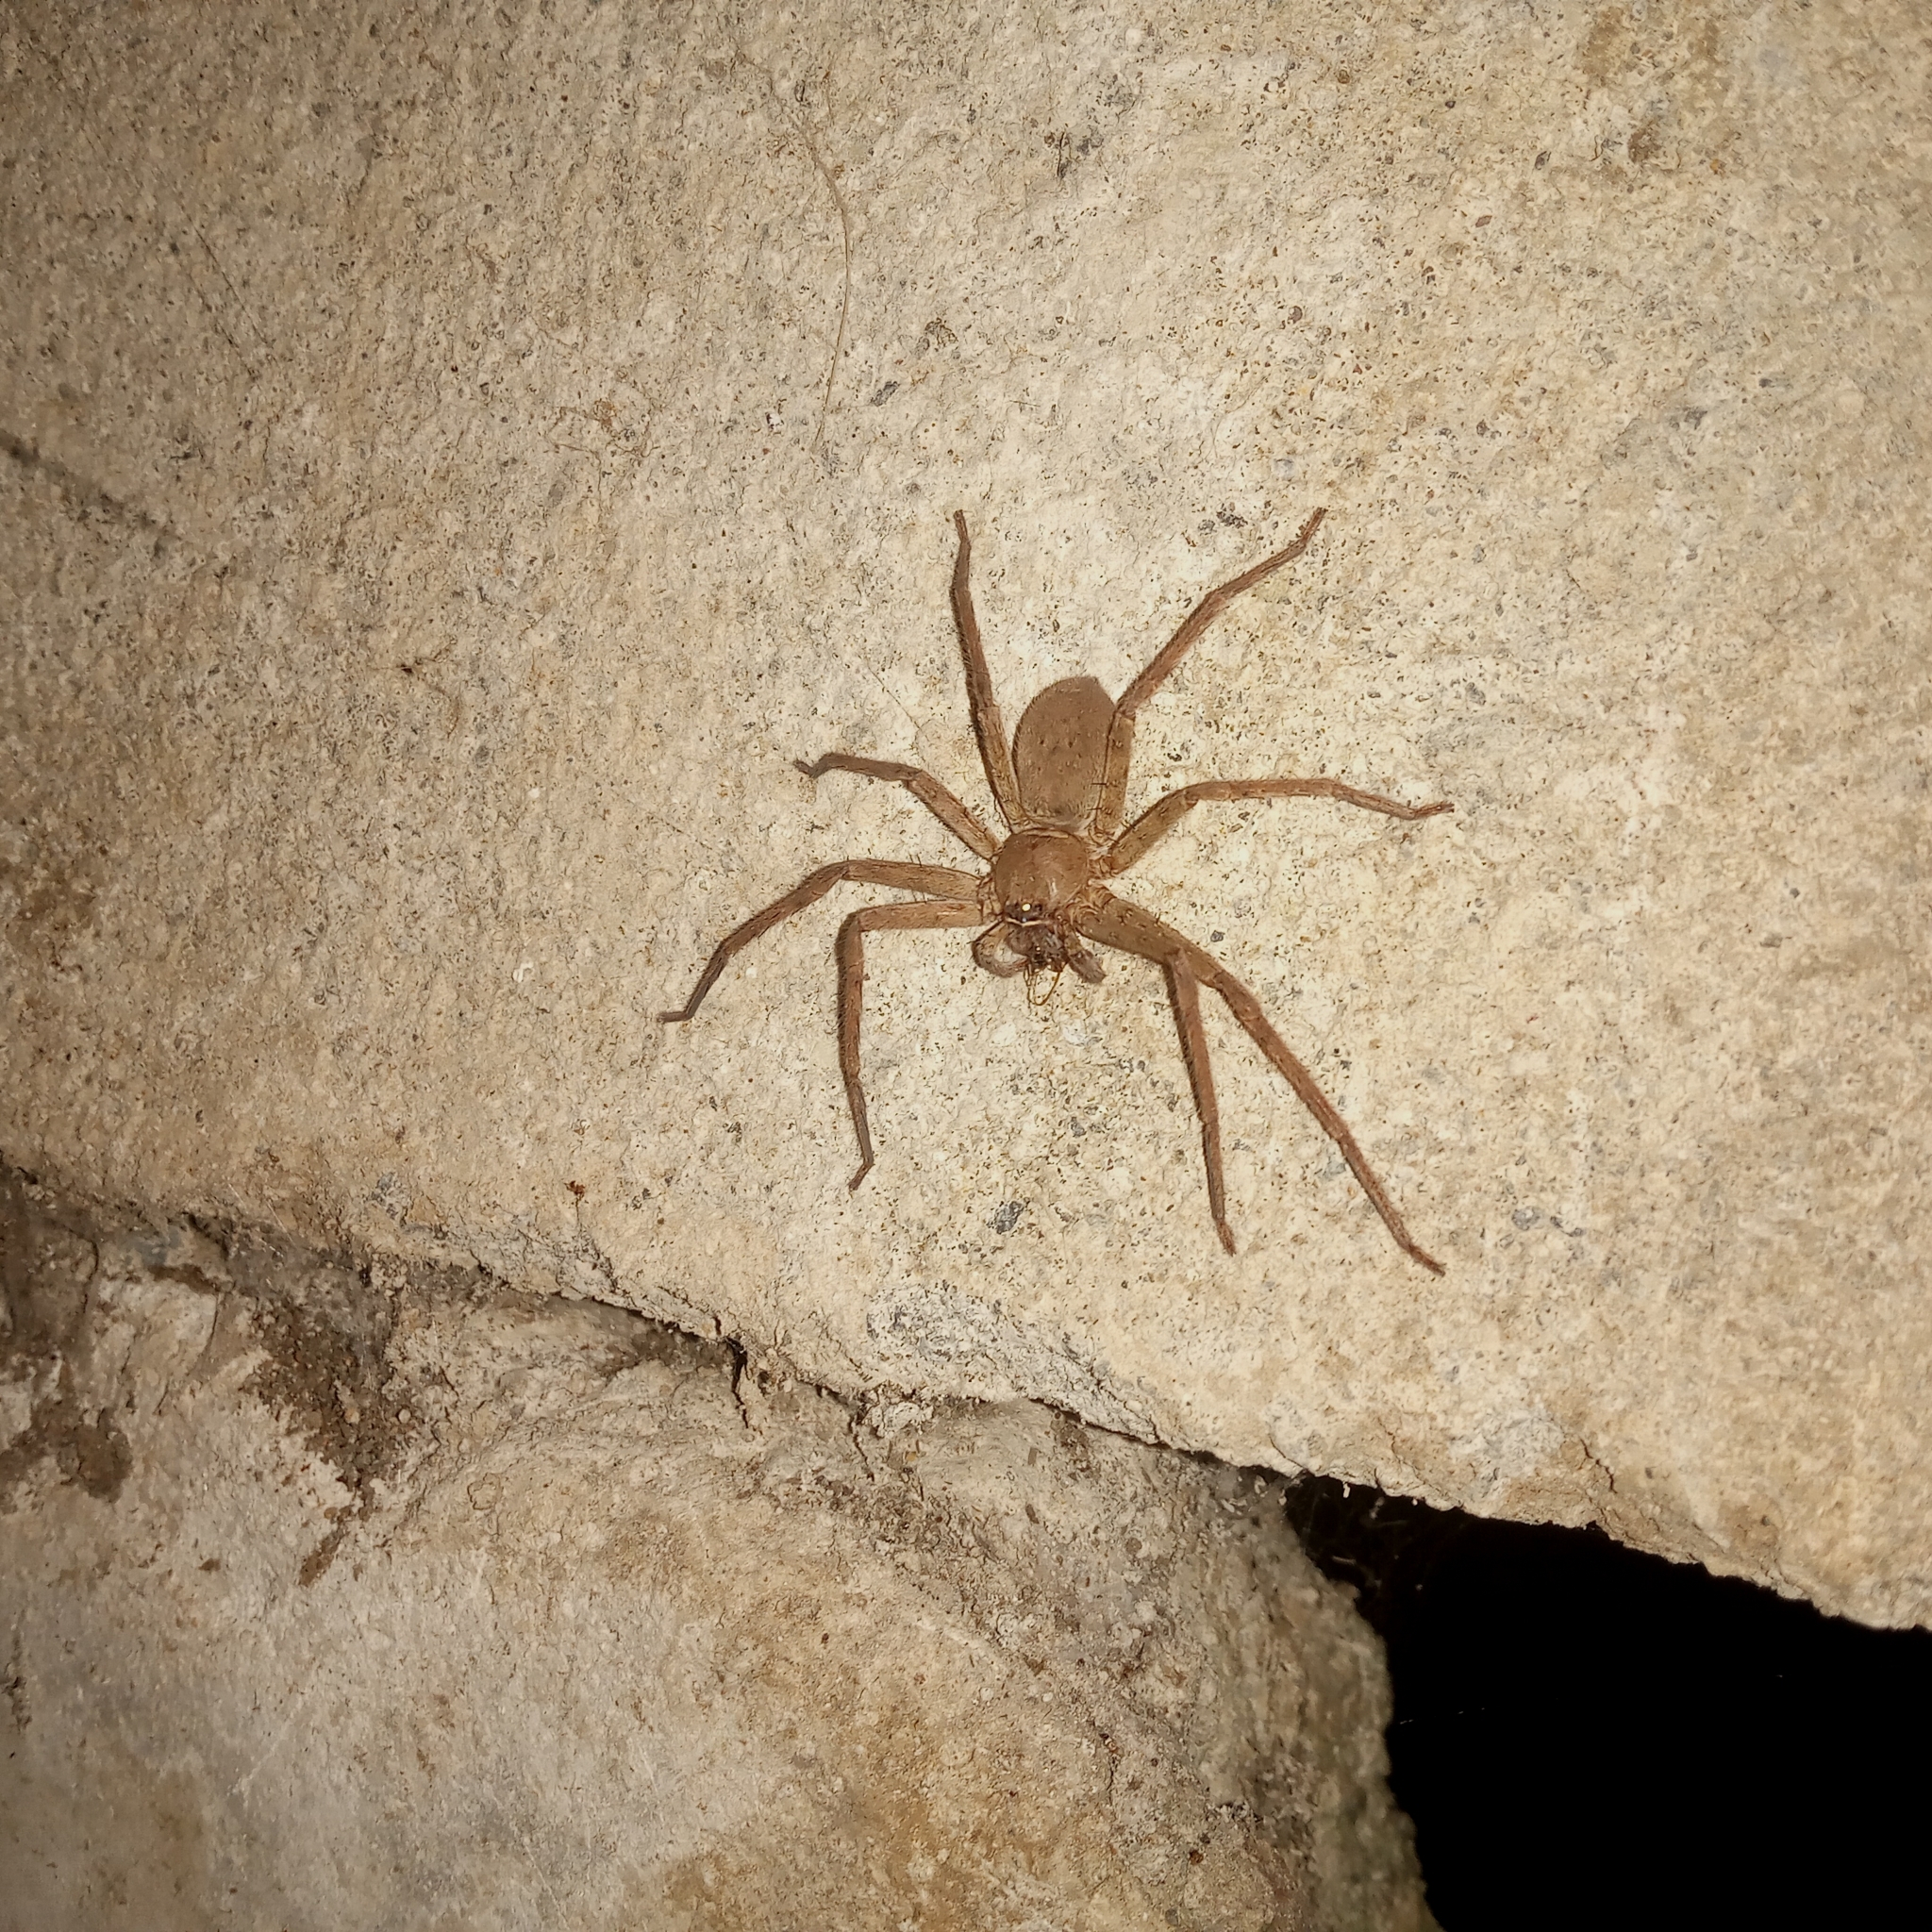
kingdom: Animalia
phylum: Arthropoda
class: Arachnida
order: Araneae
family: Sparassidae
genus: Heteropoda
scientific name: Heteropoda venatoria
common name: Huntsman spider
